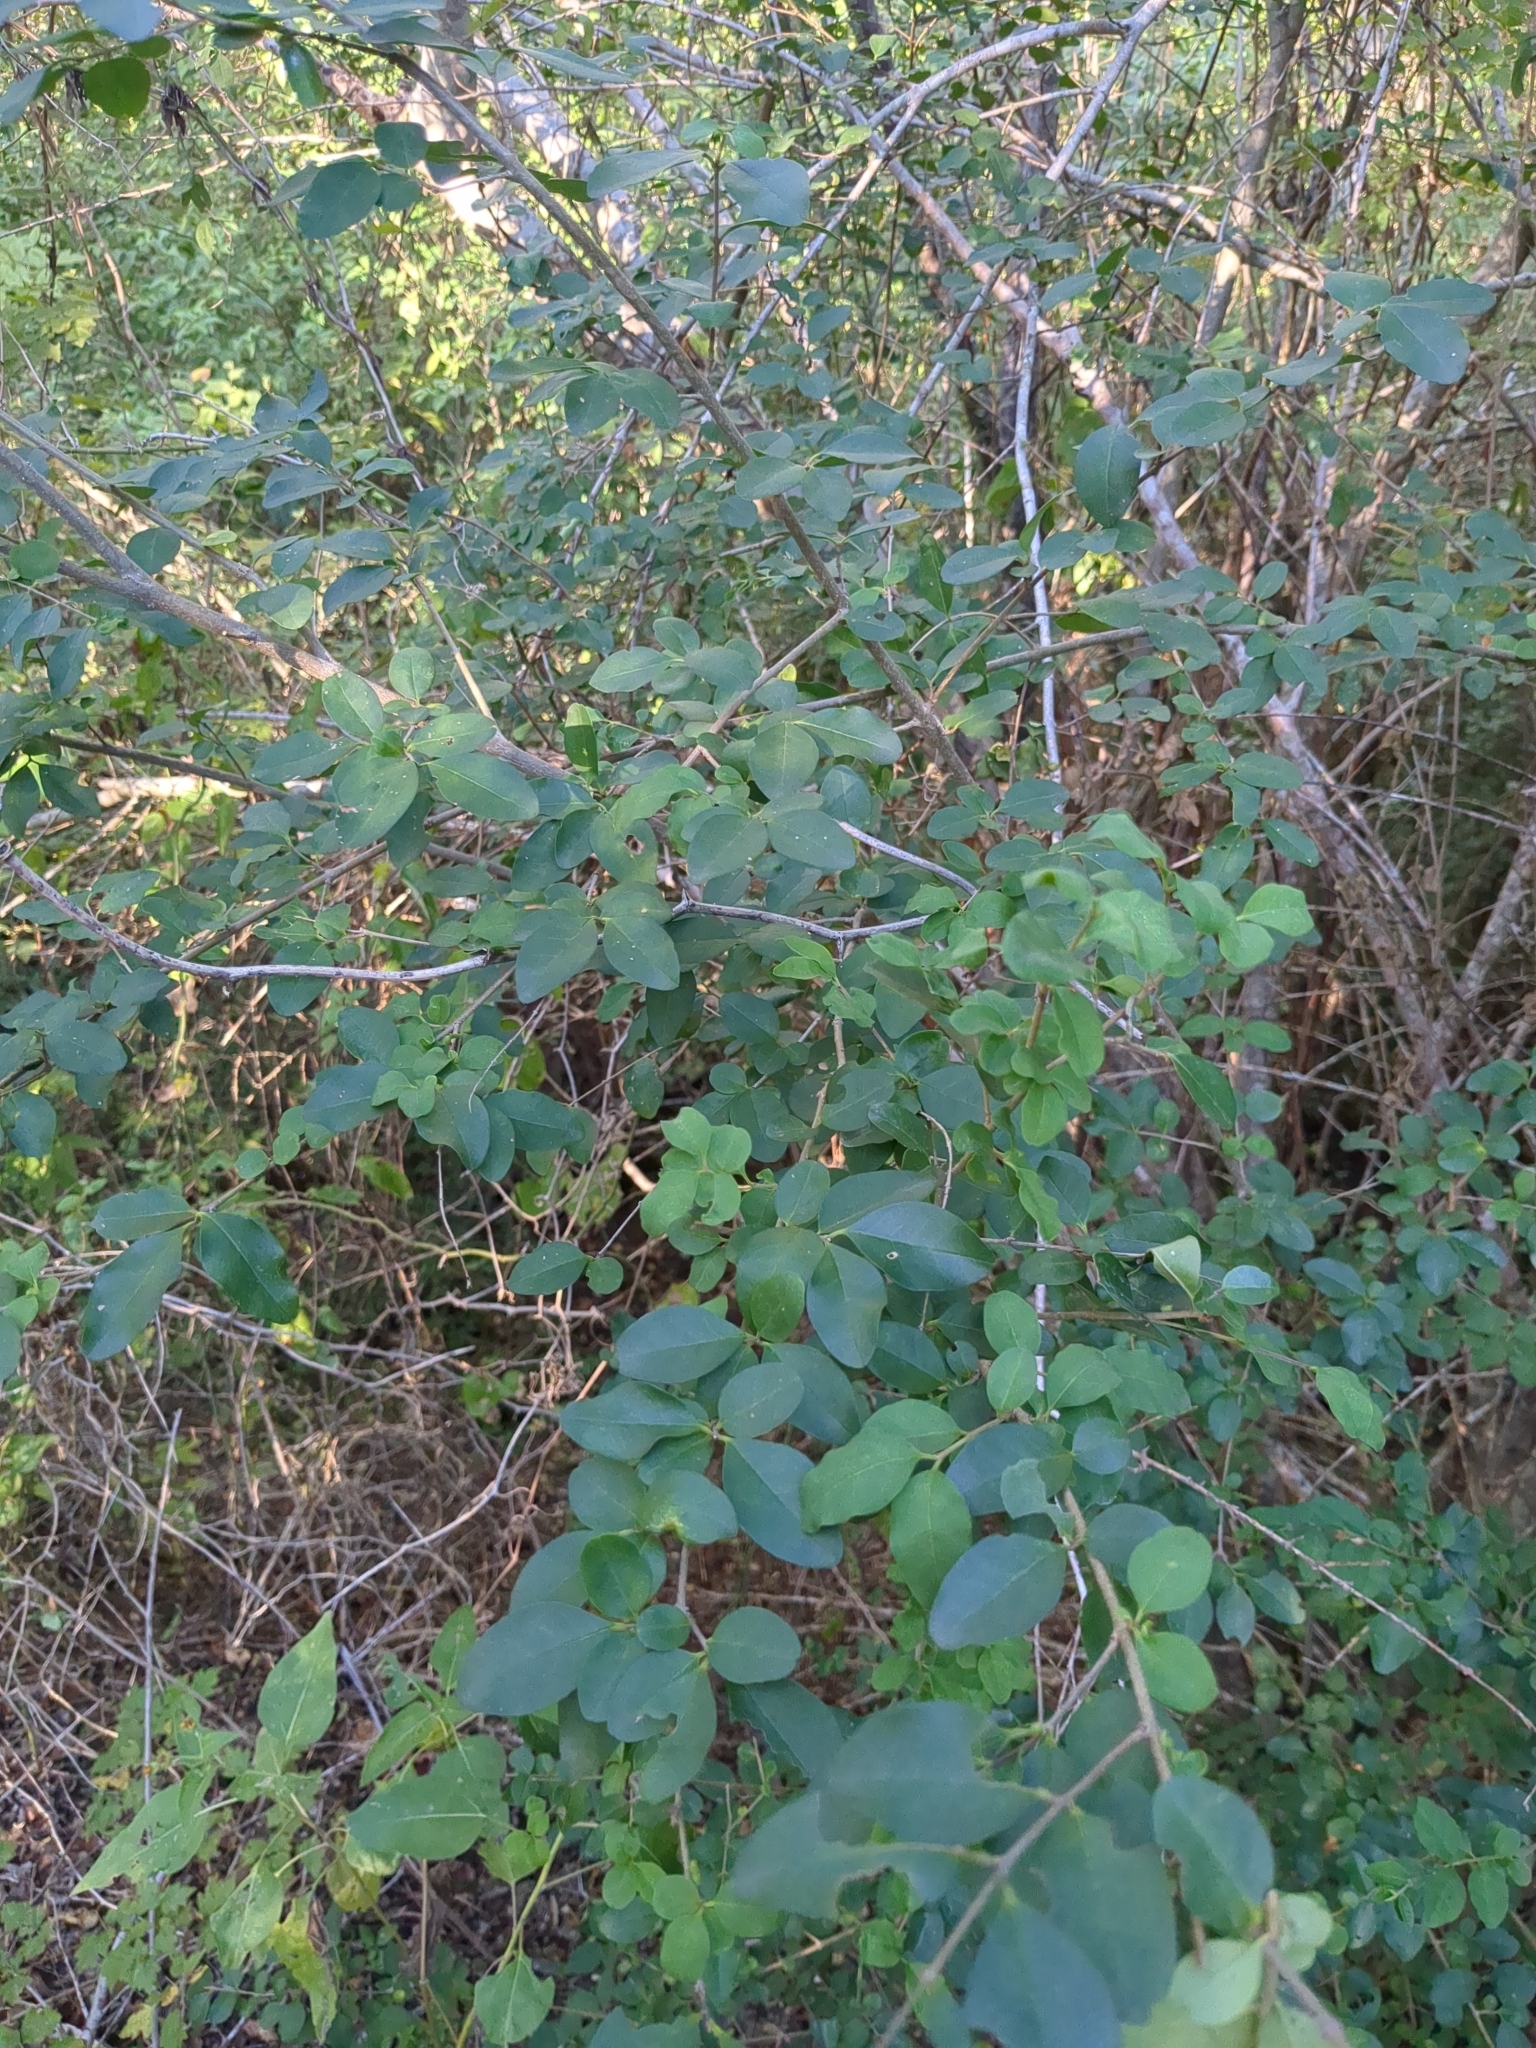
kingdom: Plantae
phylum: Tracheophyta
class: Magnoliopsida
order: Lamiales
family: Oleaceae
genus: Ligustrum
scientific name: Ligustrum sinense
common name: Chinese privet
